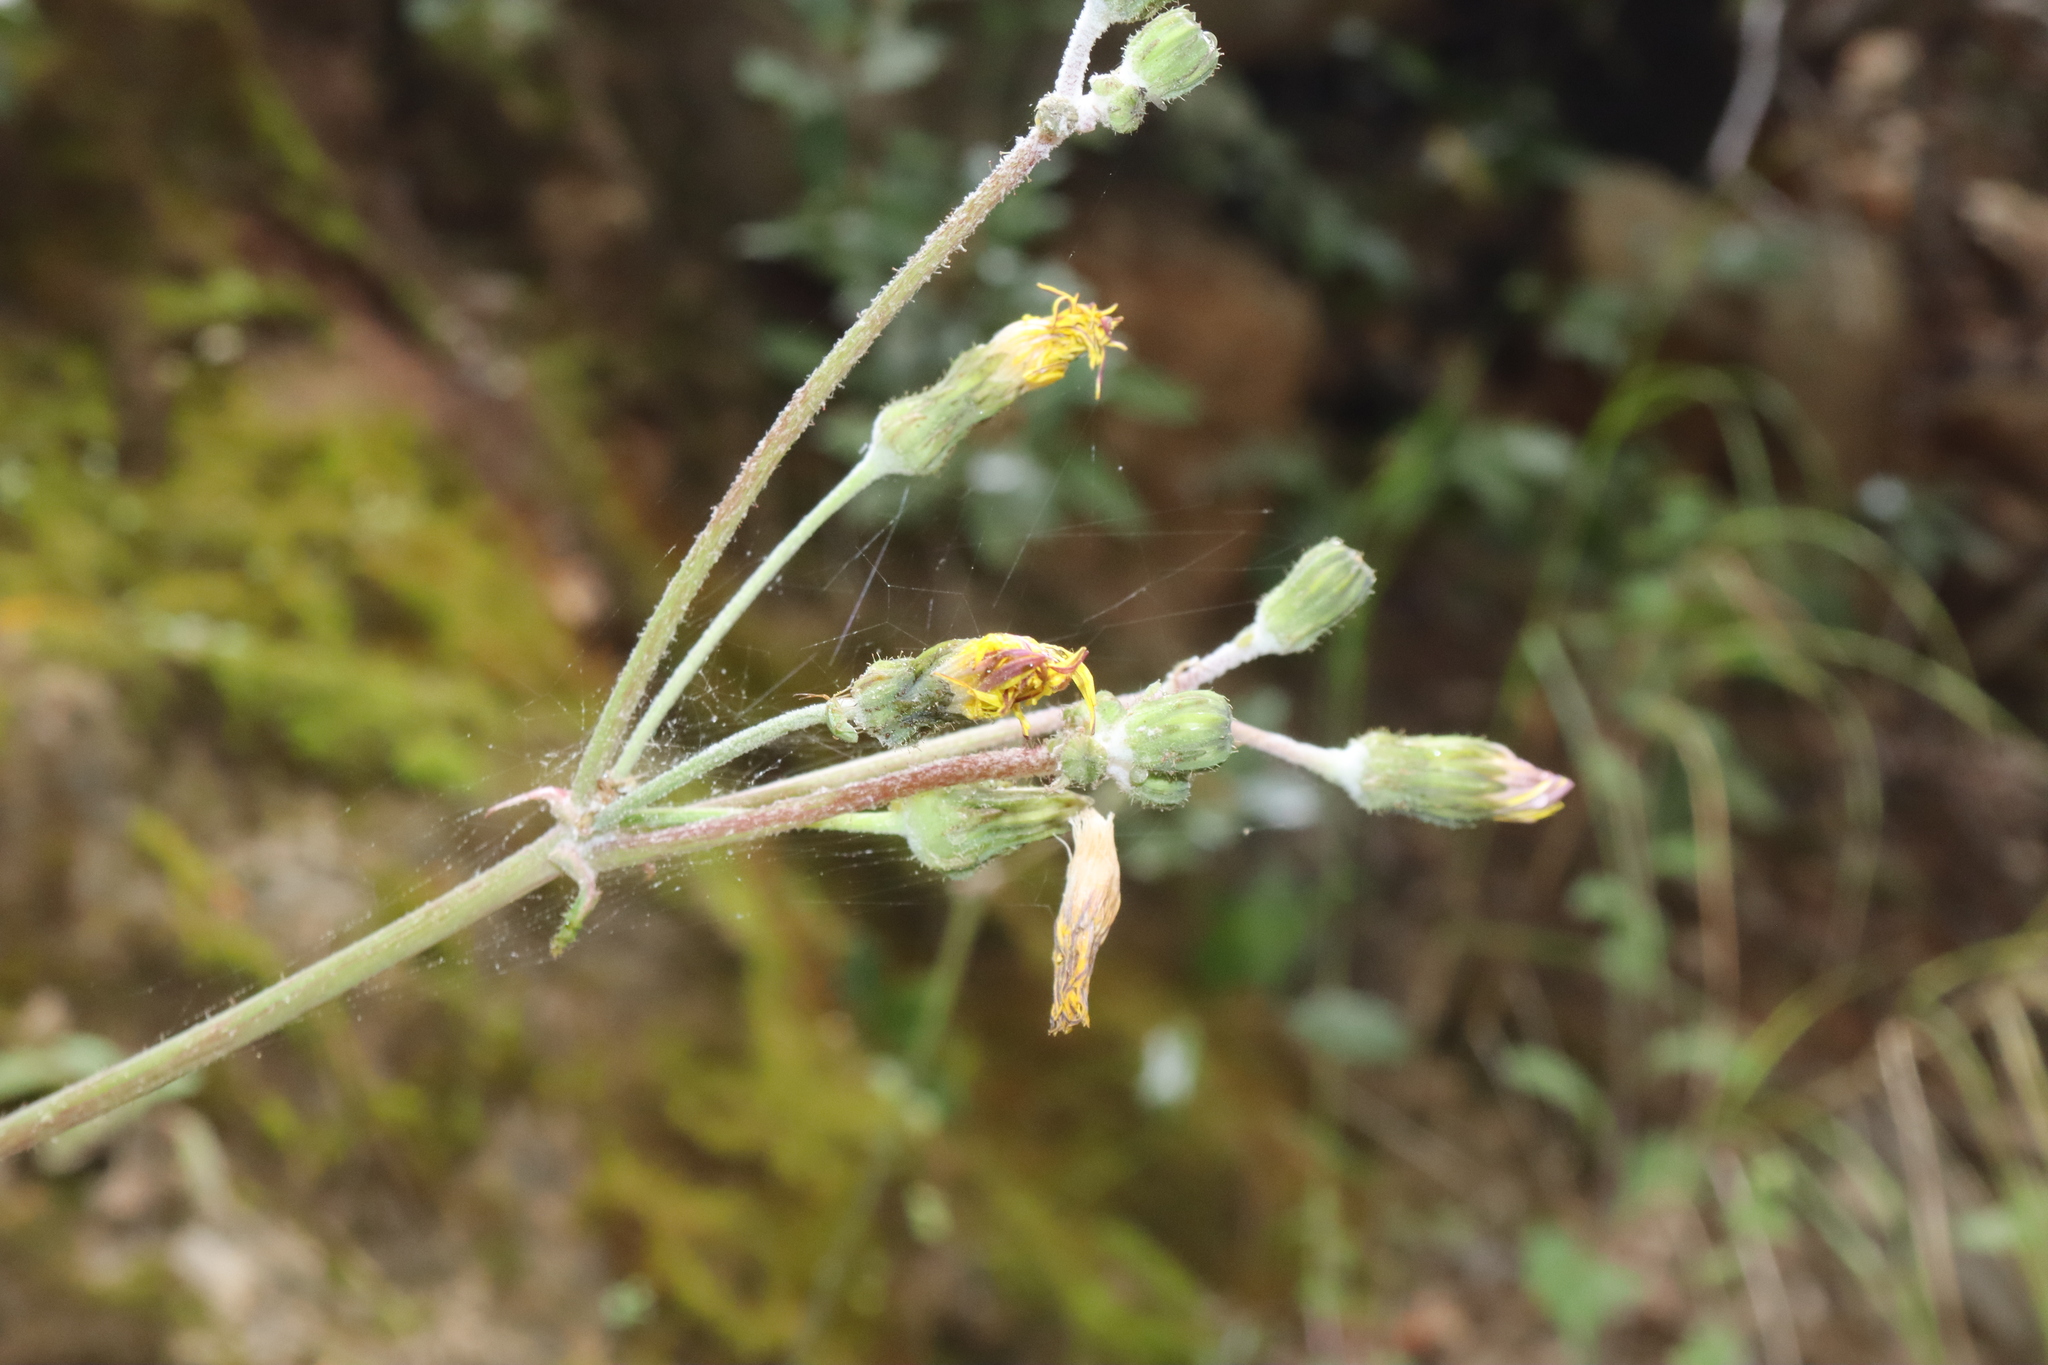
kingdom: Plantae
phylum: Tracheophyta
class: Magnoliopsida
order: Asterales
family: Asteraceae
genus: Sonchus
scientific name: Sonchus asper
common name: Prickly sow-thistle
